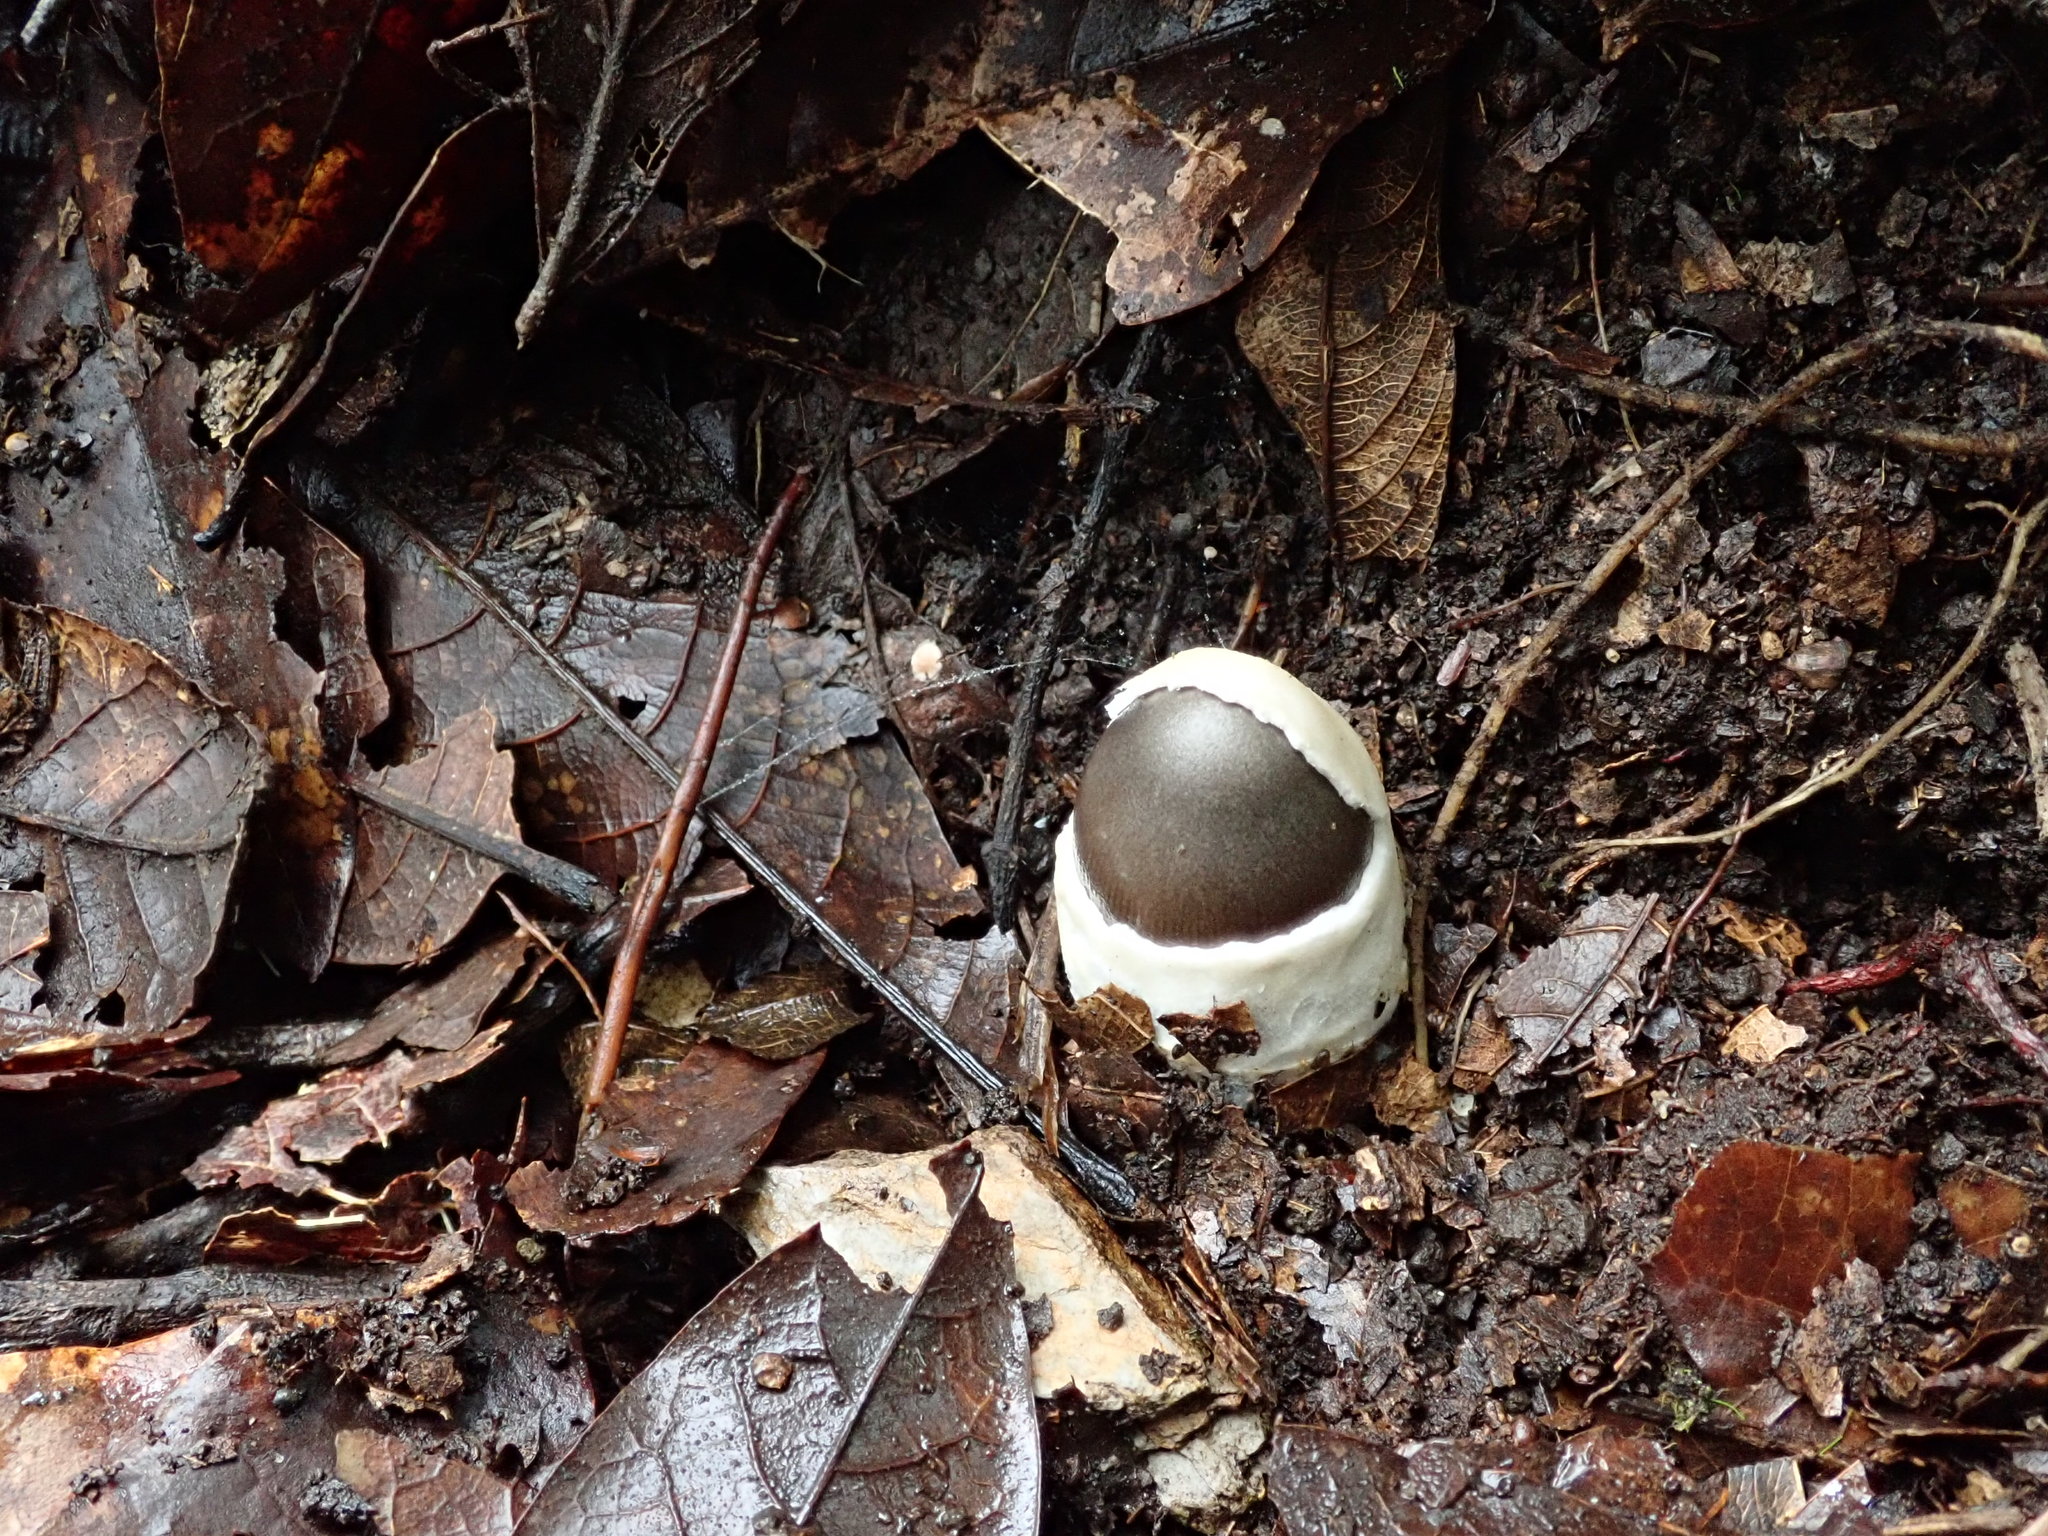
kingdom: Fungi
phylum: Basidiomycota
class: Agaricomycetes
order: Agaricales
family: Amanitaceae
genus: Amanita
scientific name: Amanita fuligineodisca
